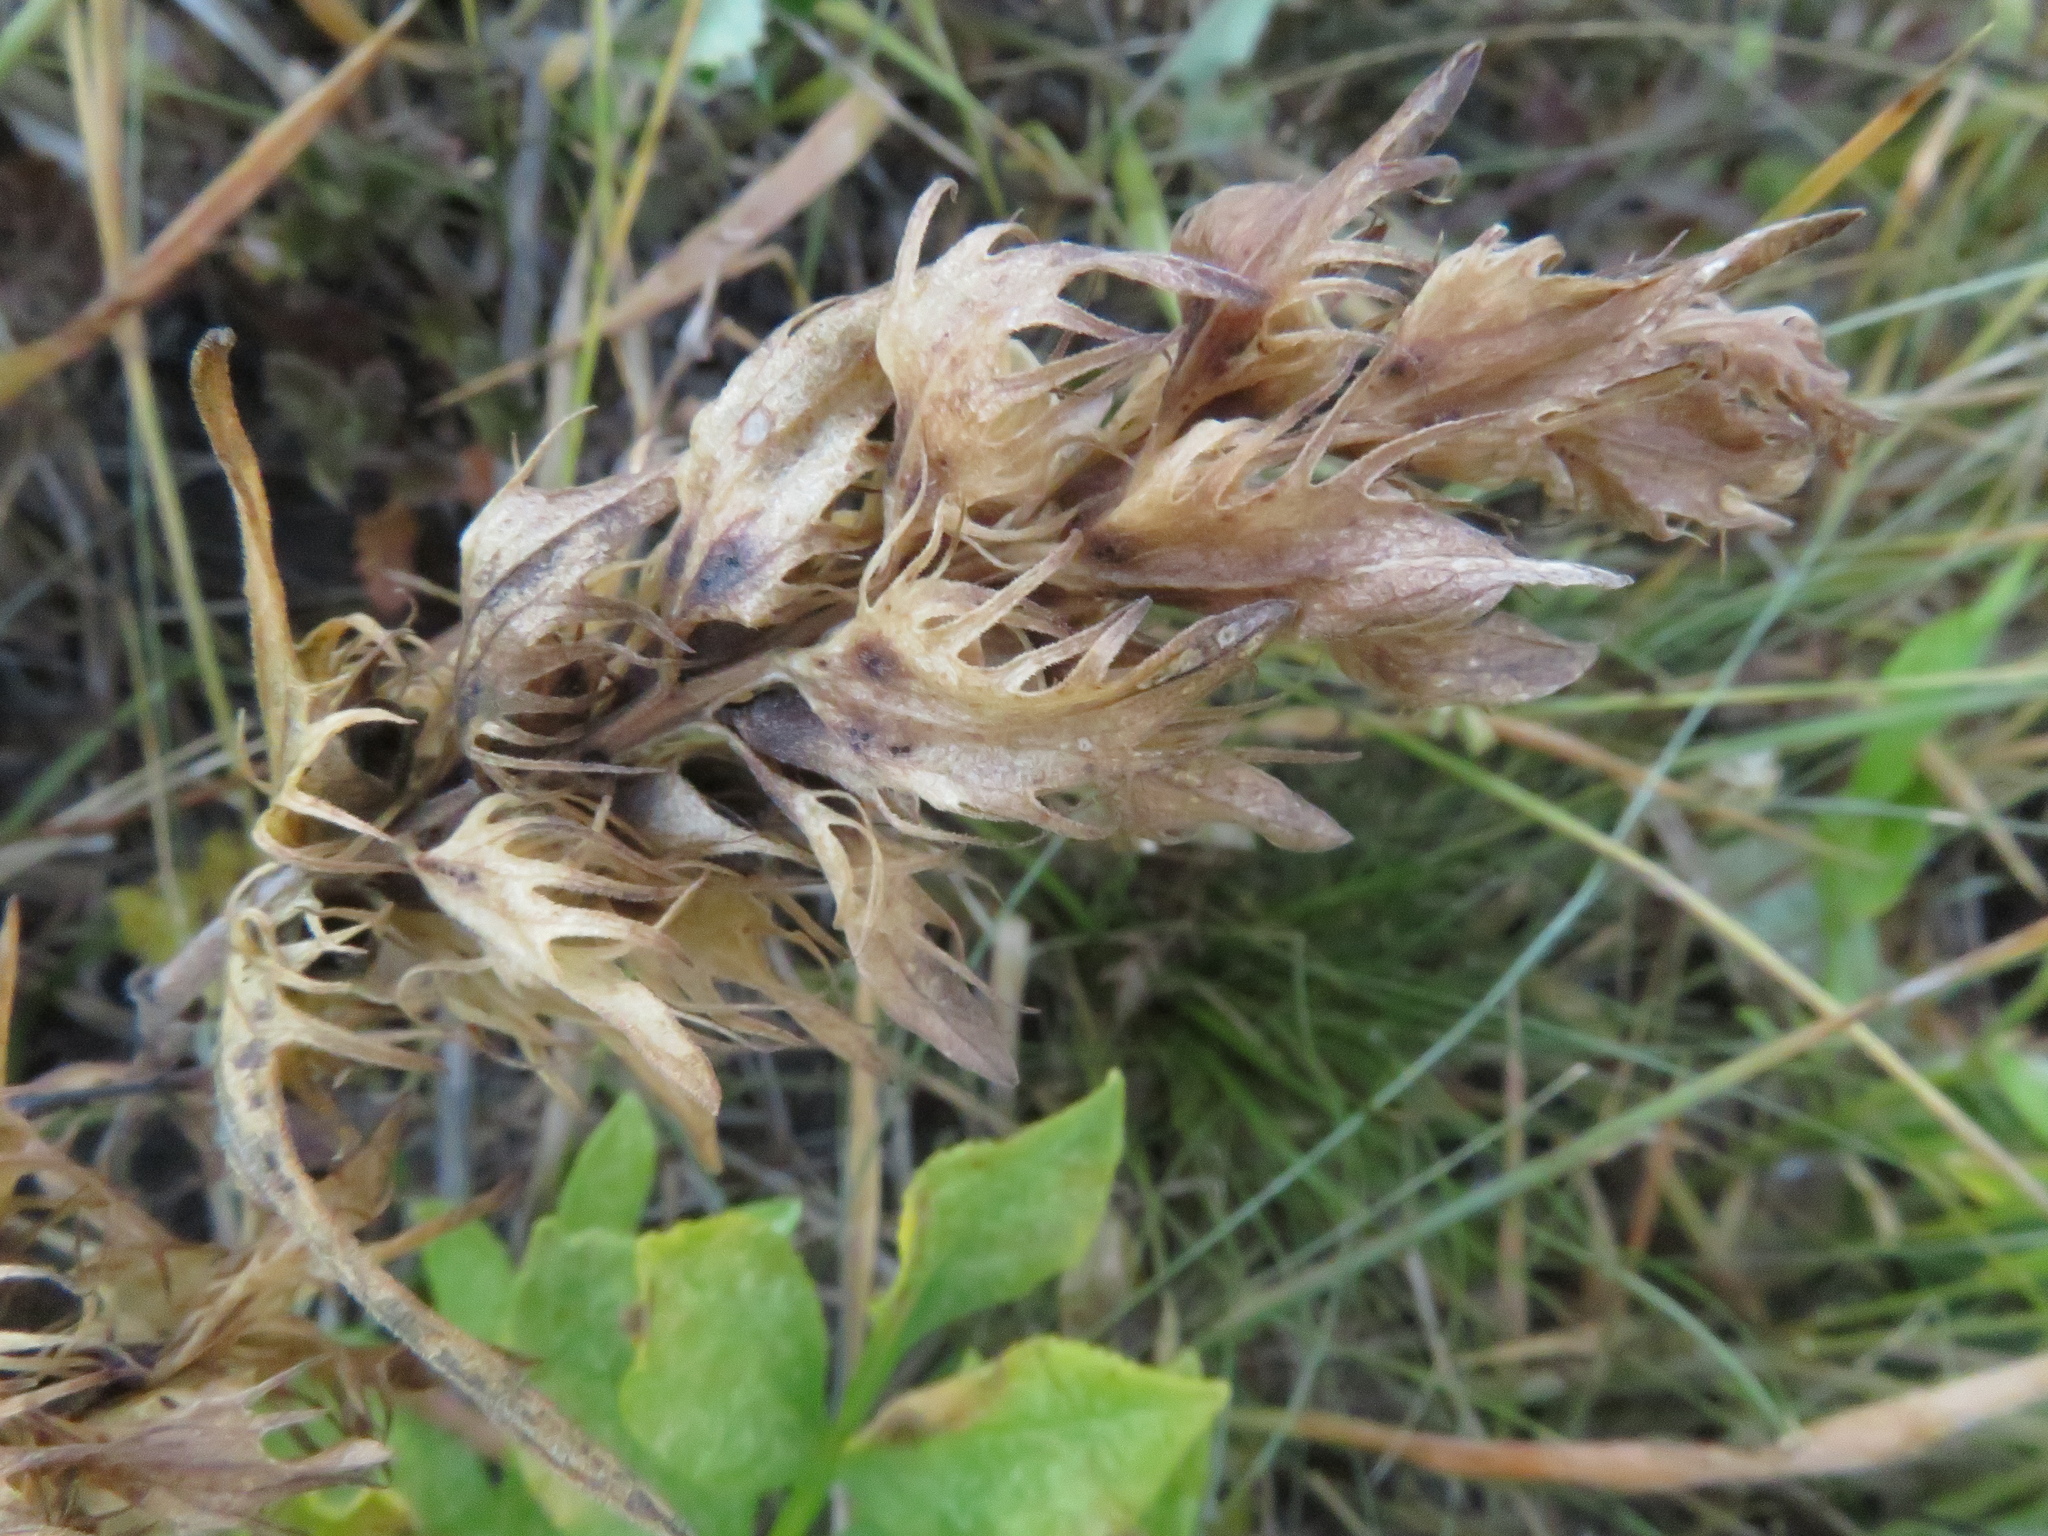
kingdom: Plantae
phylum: Tracheophyta
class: Magnoliopsida
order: Lamiales
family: Orobanchaceae
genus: Melampyrum
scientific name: Melampyrum arvense
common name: Field cow-wheat
